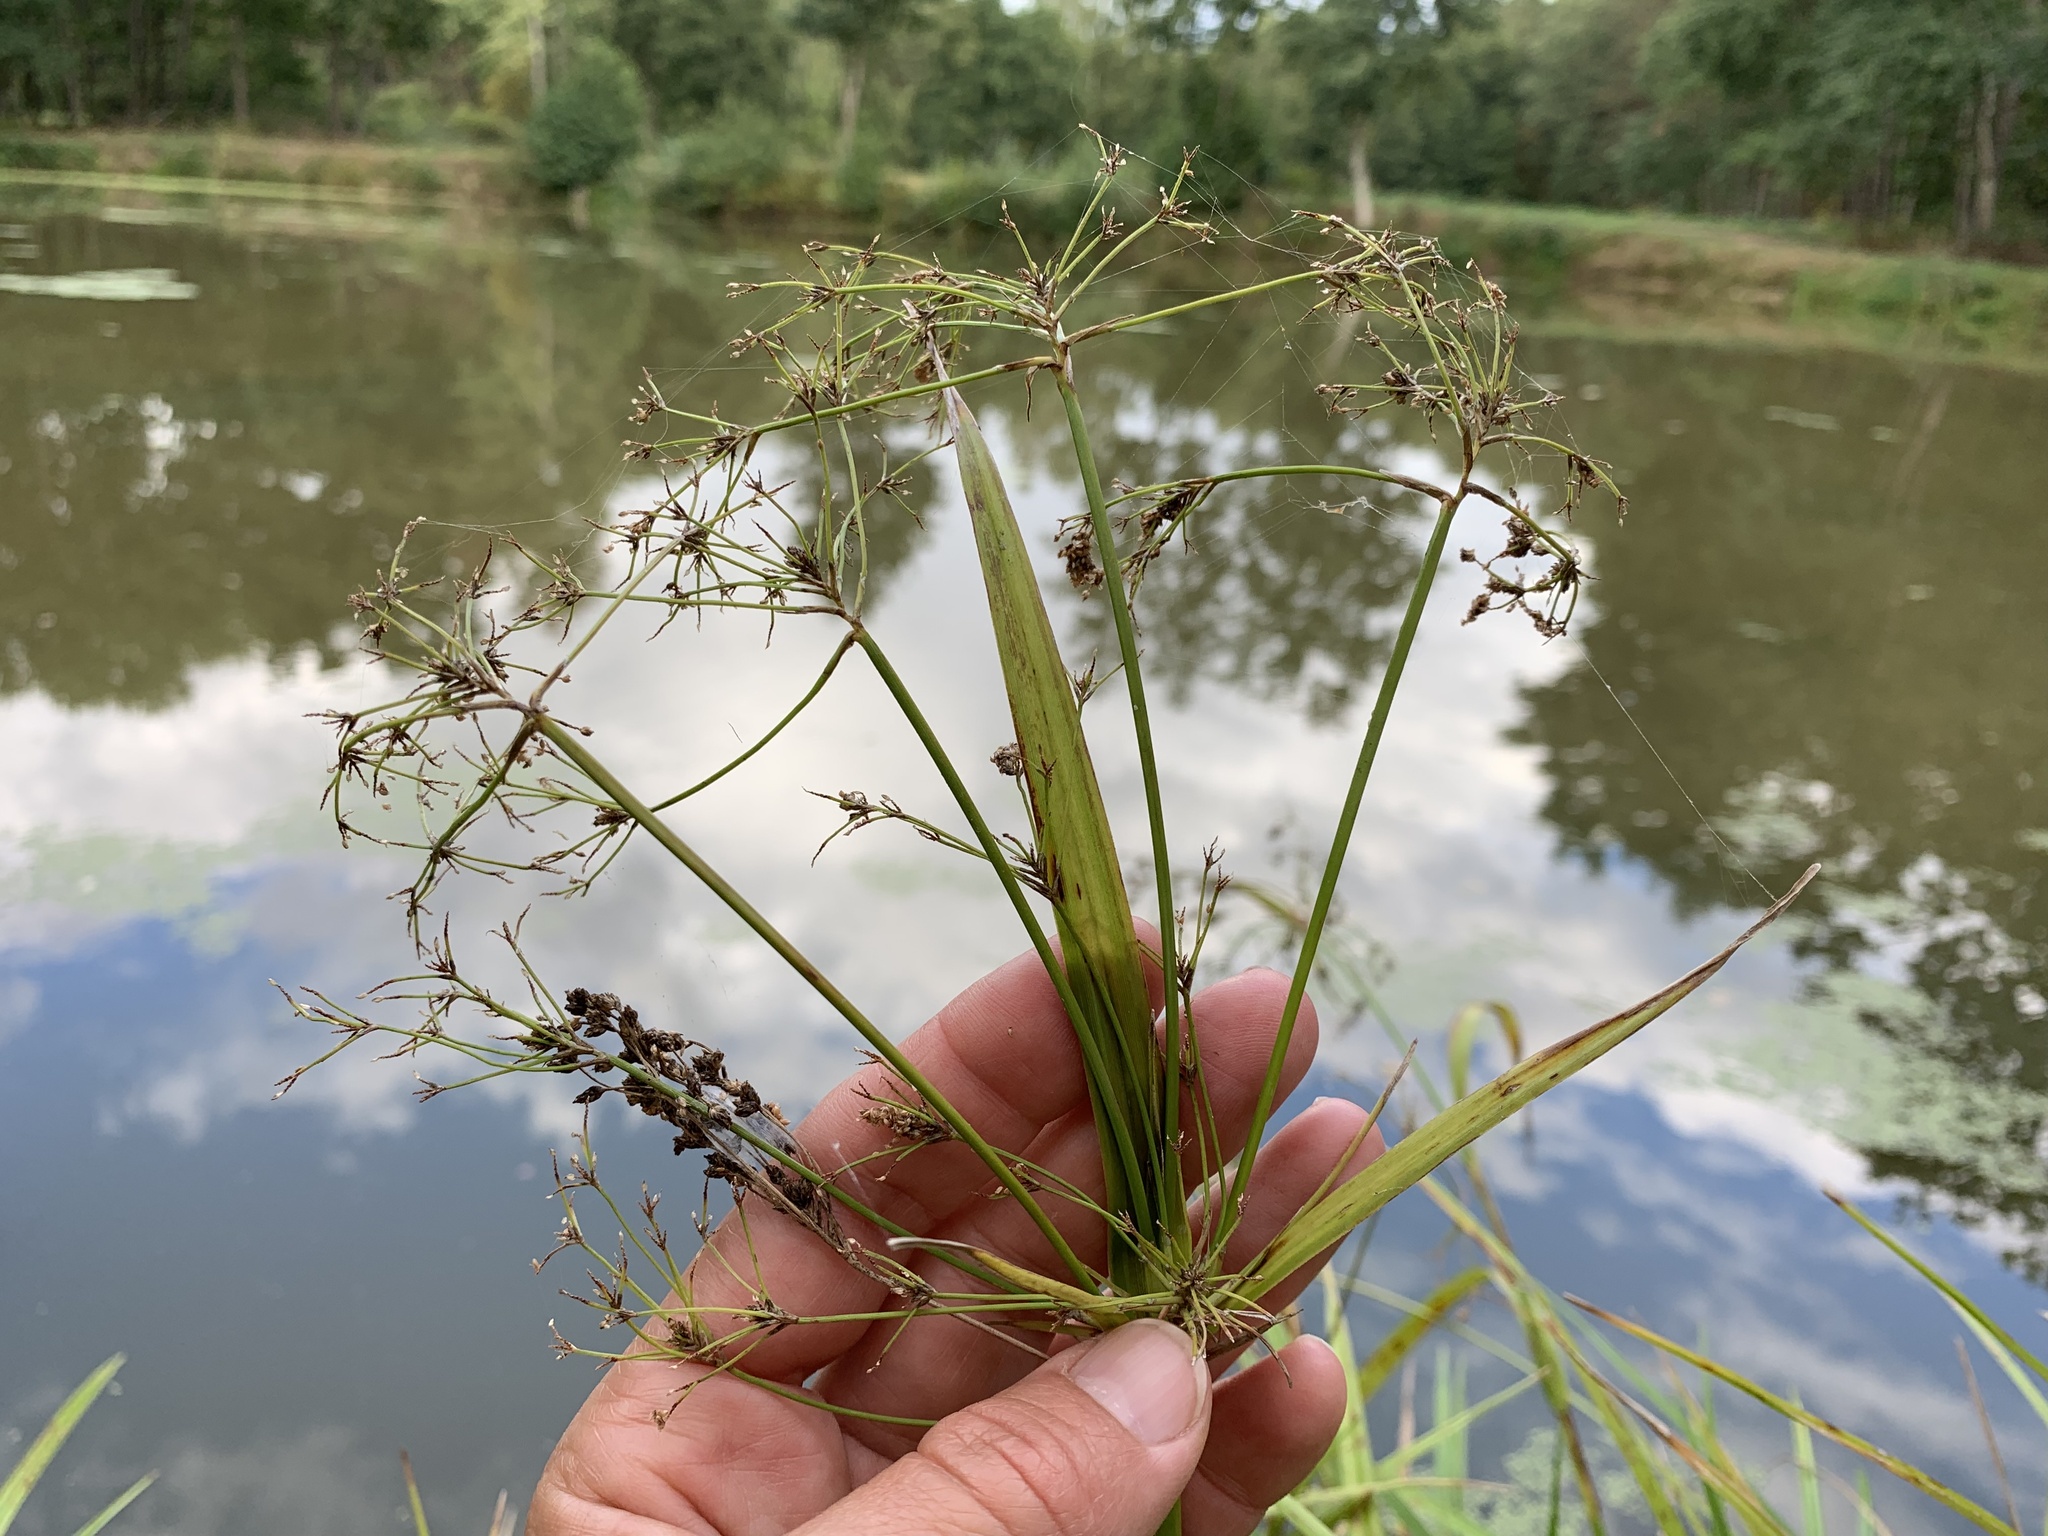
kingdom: Plantae
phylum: Tracheophyta
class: Liliopsida
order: Poales
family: Cyperaceae
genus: Scirpus
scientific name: Scirpus sylvaticus
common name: Wood club-rush
